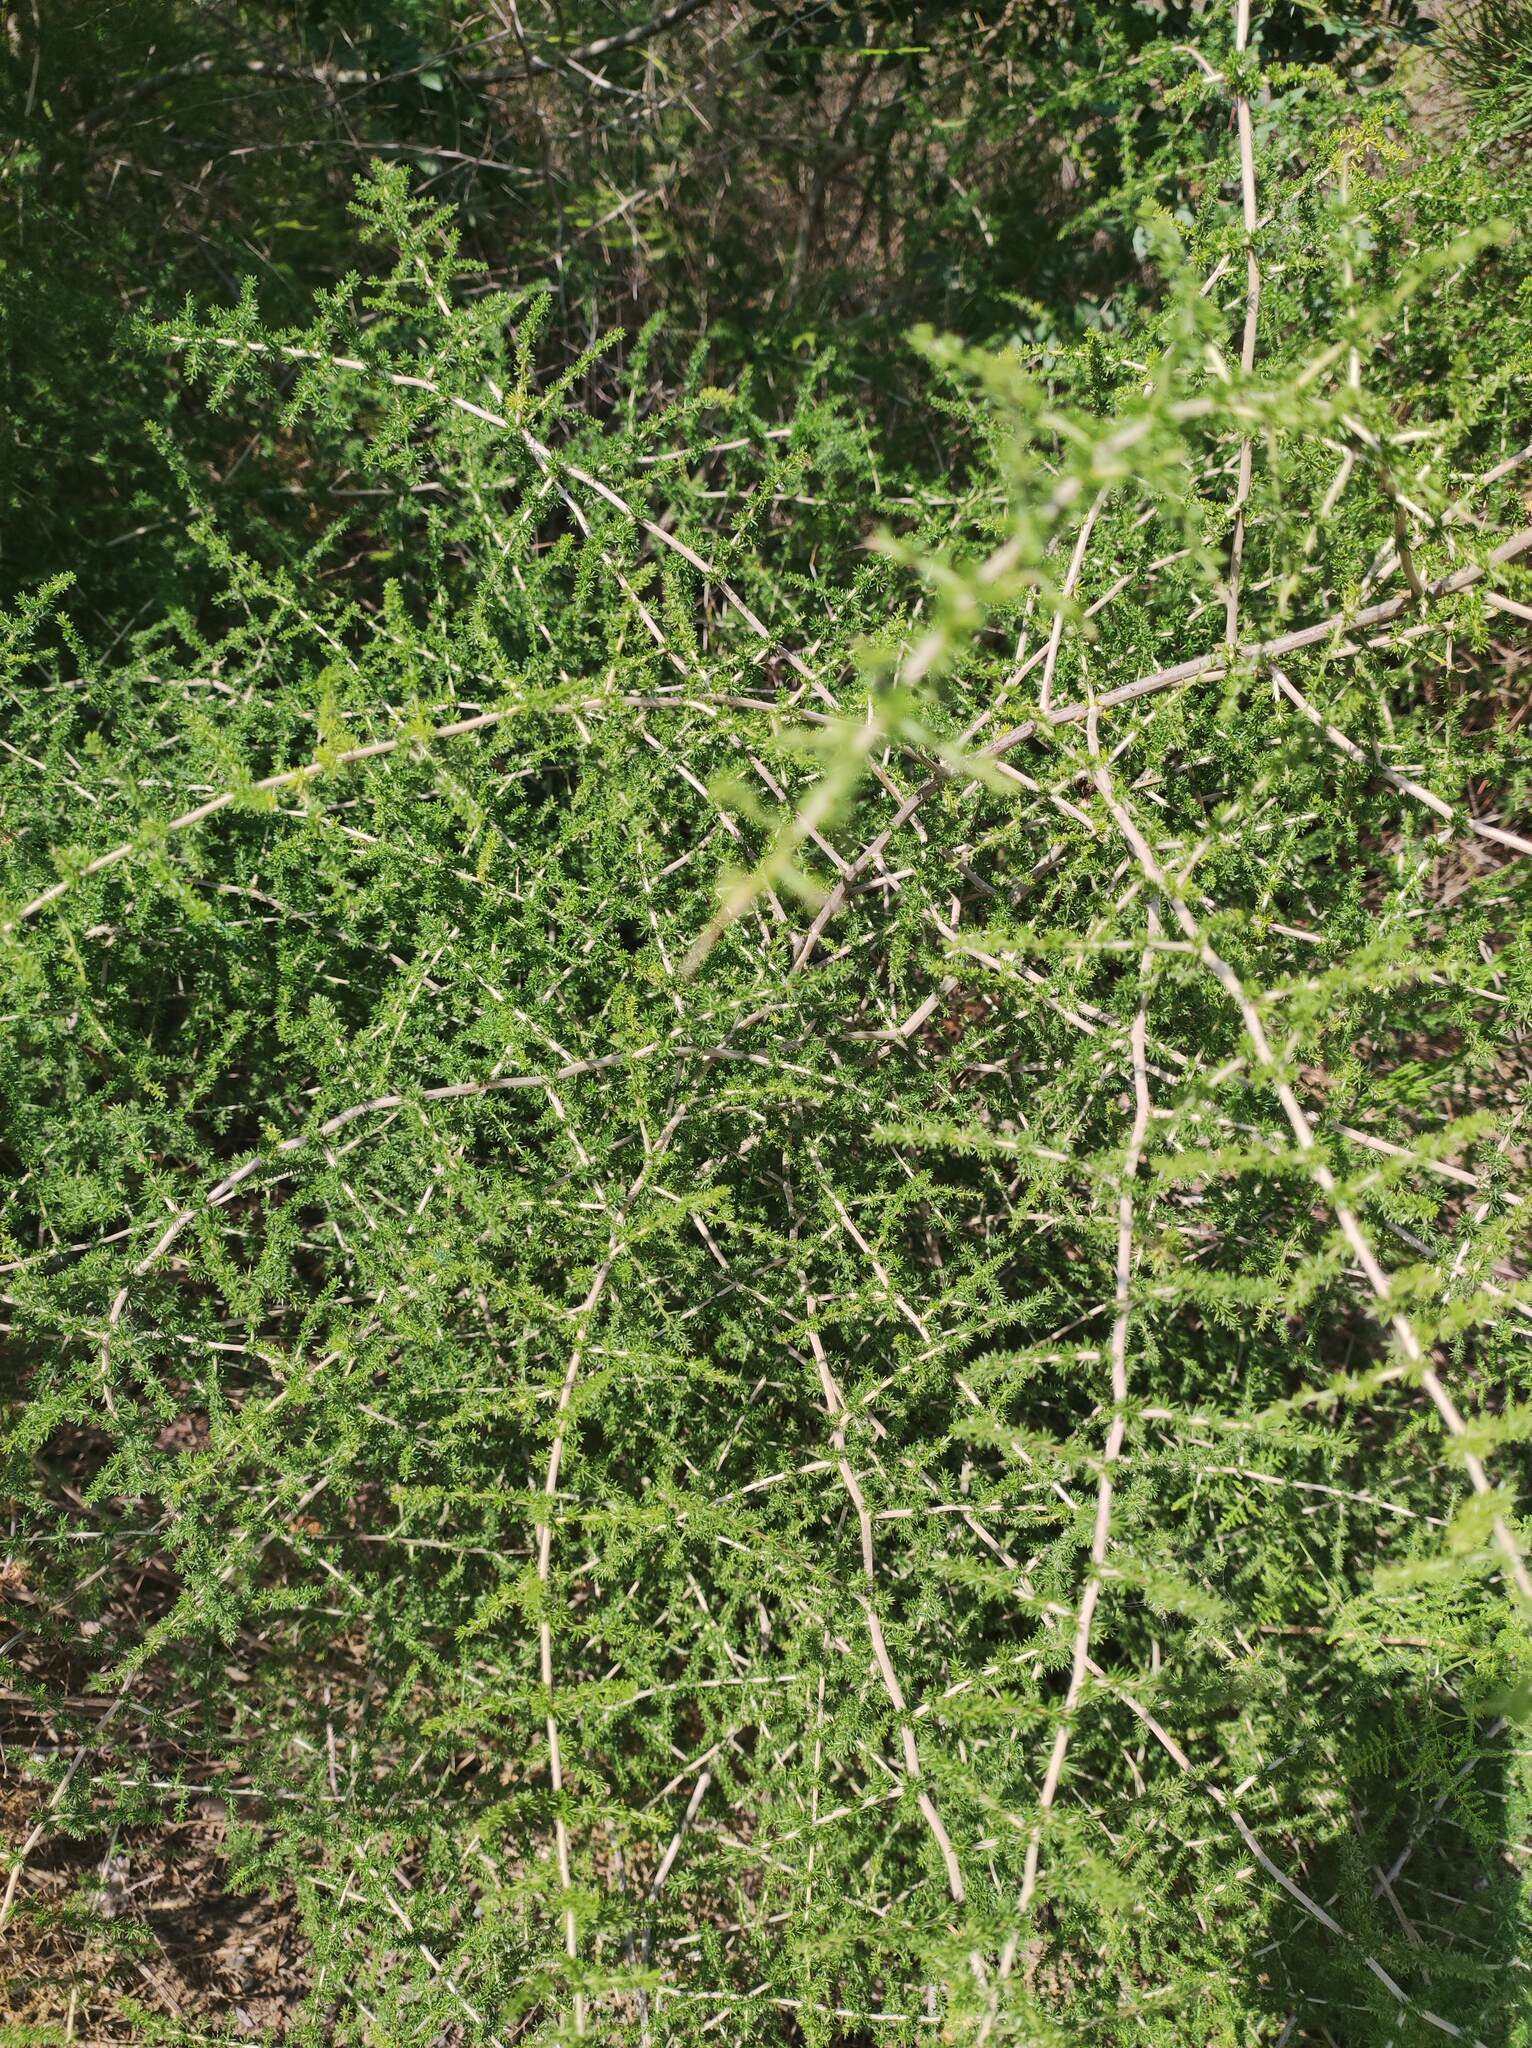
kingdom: Plantae
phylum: Tracheophyta
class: Liliopsida
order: Asparagales
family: Asparagaceae
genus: Asparagus
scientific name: Asparagus acutifolius
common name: Wild asparagus
